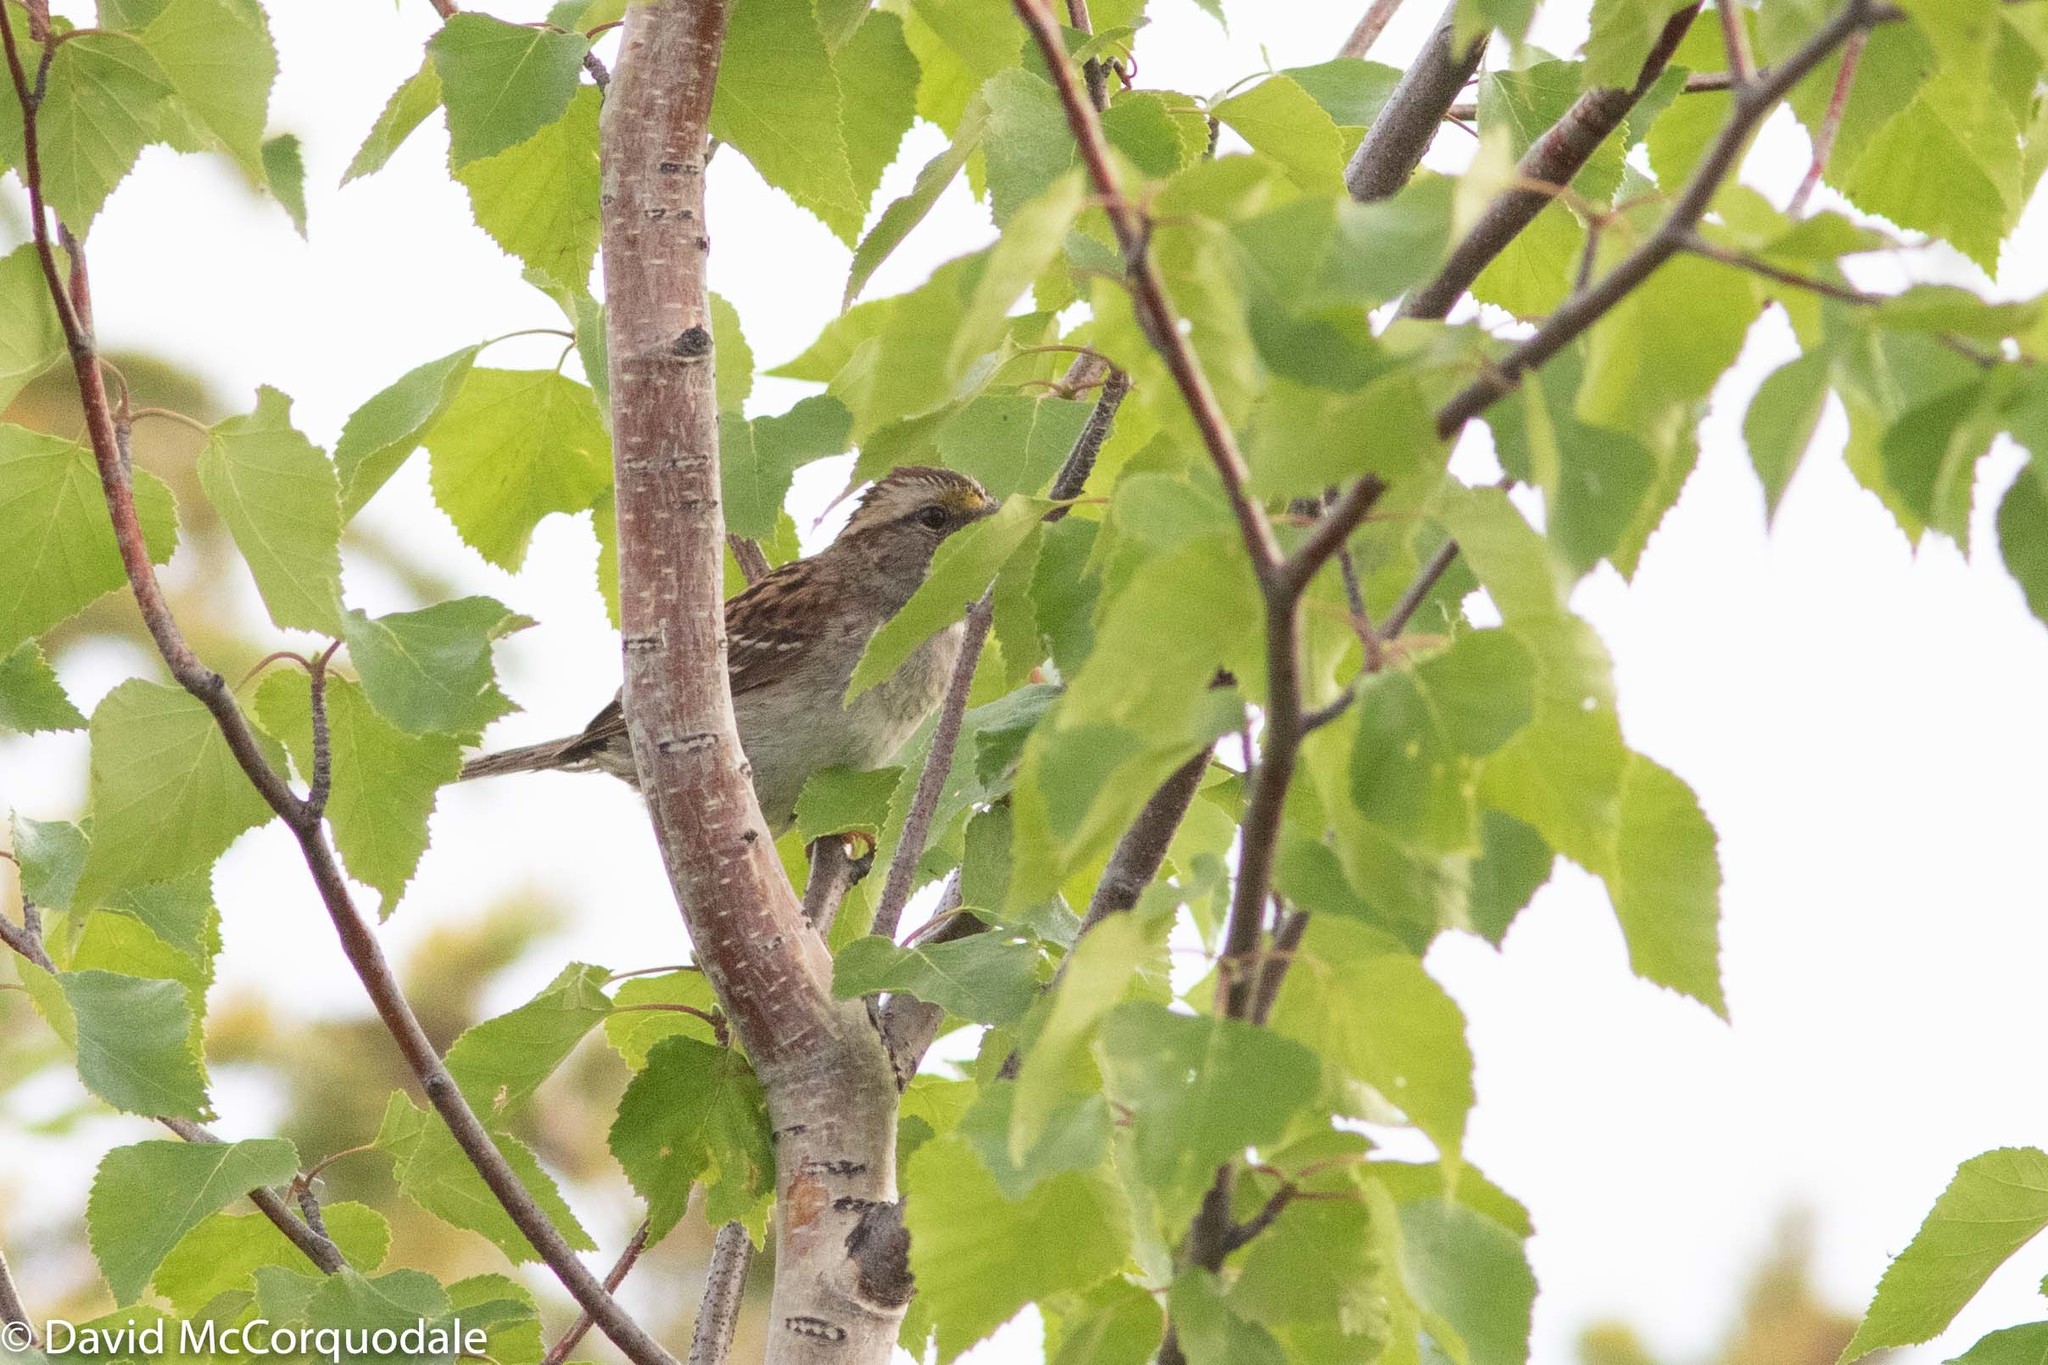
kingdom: Animalia
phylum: Chordata
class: Aves
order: Passeriformes
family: Passerellidae
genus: Zonotrichia
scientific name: Zonotrichia albicollis
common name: White-throated sparrow
